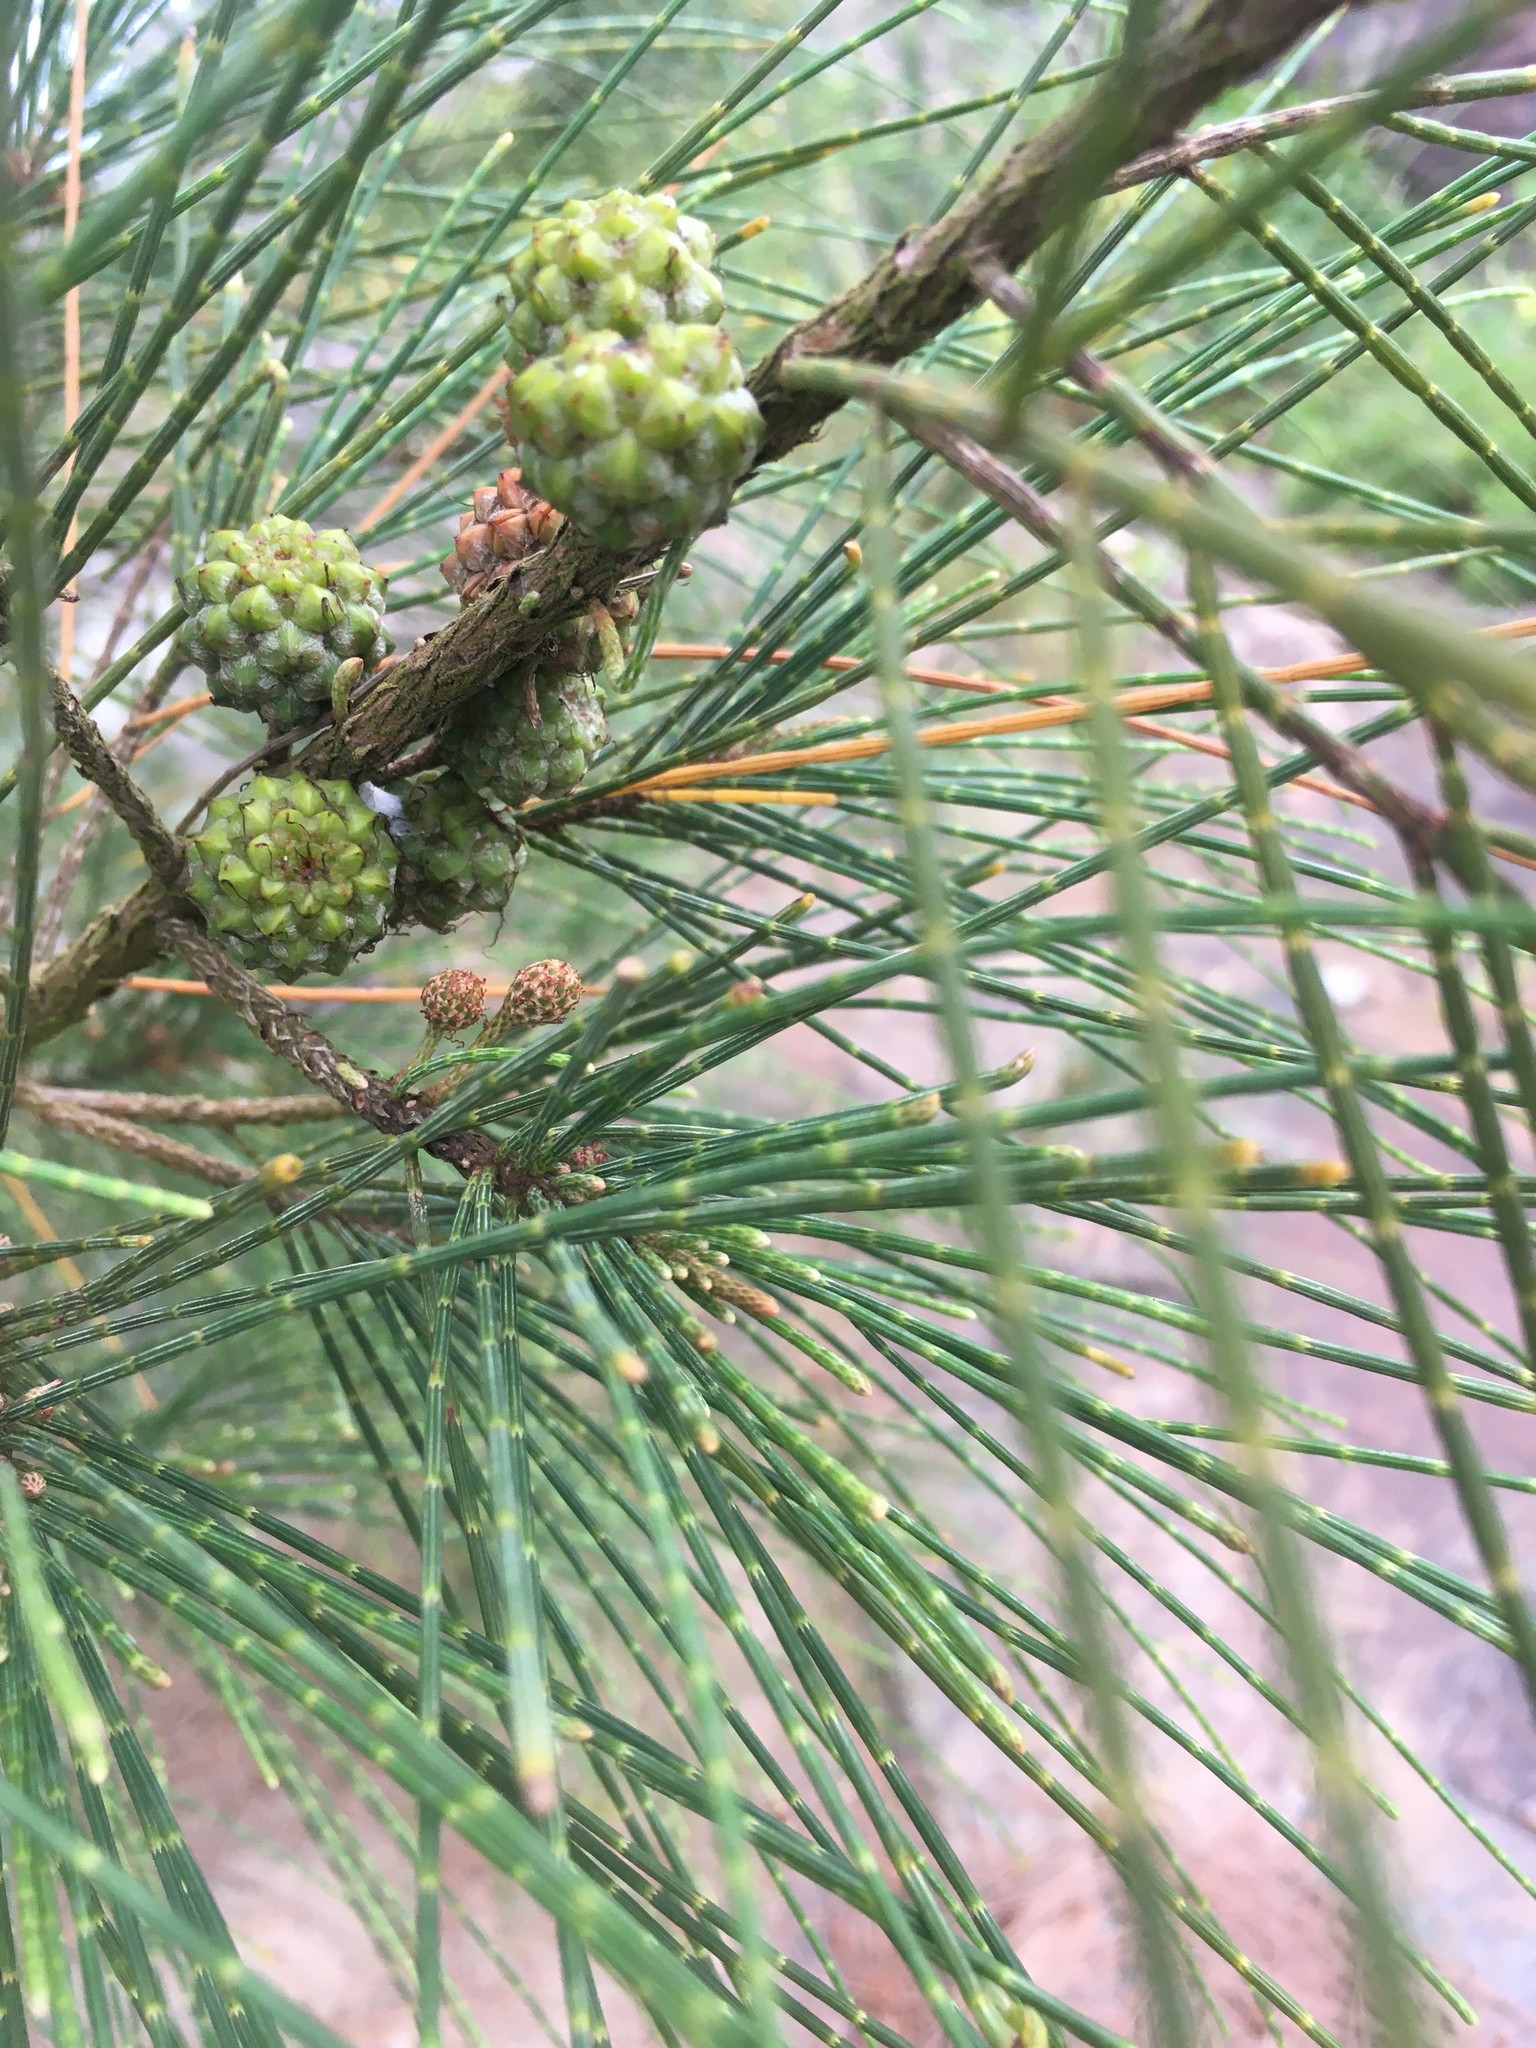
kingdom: Plantae
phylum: Tracheophyta
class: Magnoliopsida
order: Fagales
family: Casuarinaceae
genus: Casuarina
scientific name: Casuarina equisetifolia
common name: Beach sheoak
